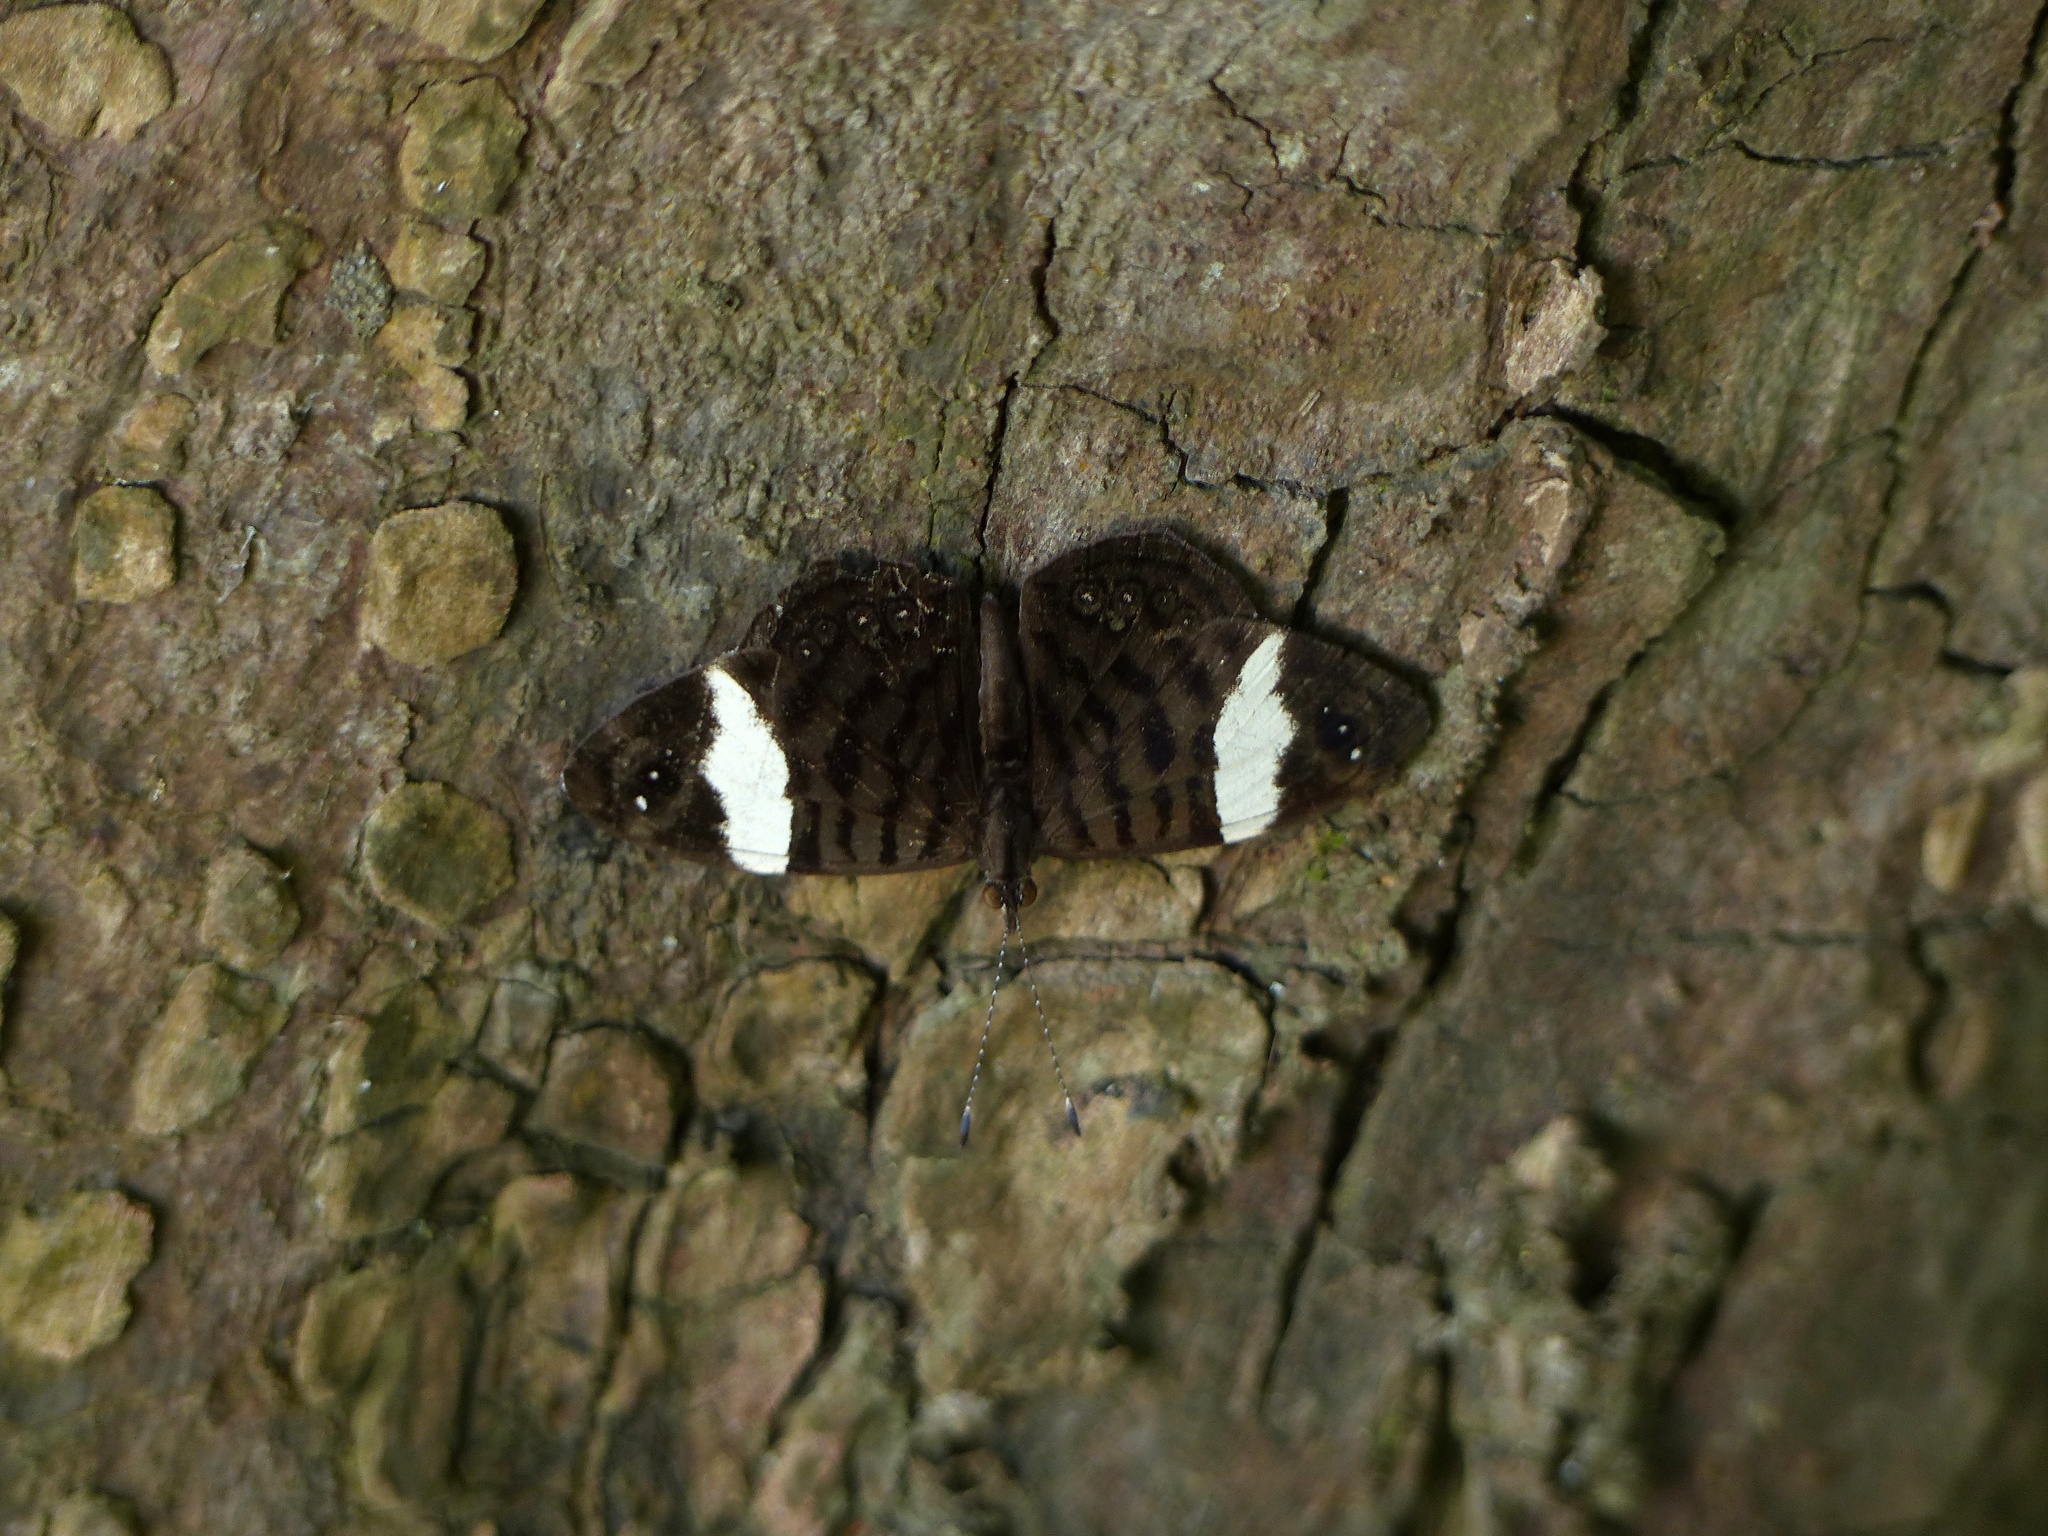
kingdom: Animalia
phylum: Arthropoda
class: Insecta
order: Lepidoptera
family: Nymphalidae
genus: Ectima
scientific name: Ectima thecla
